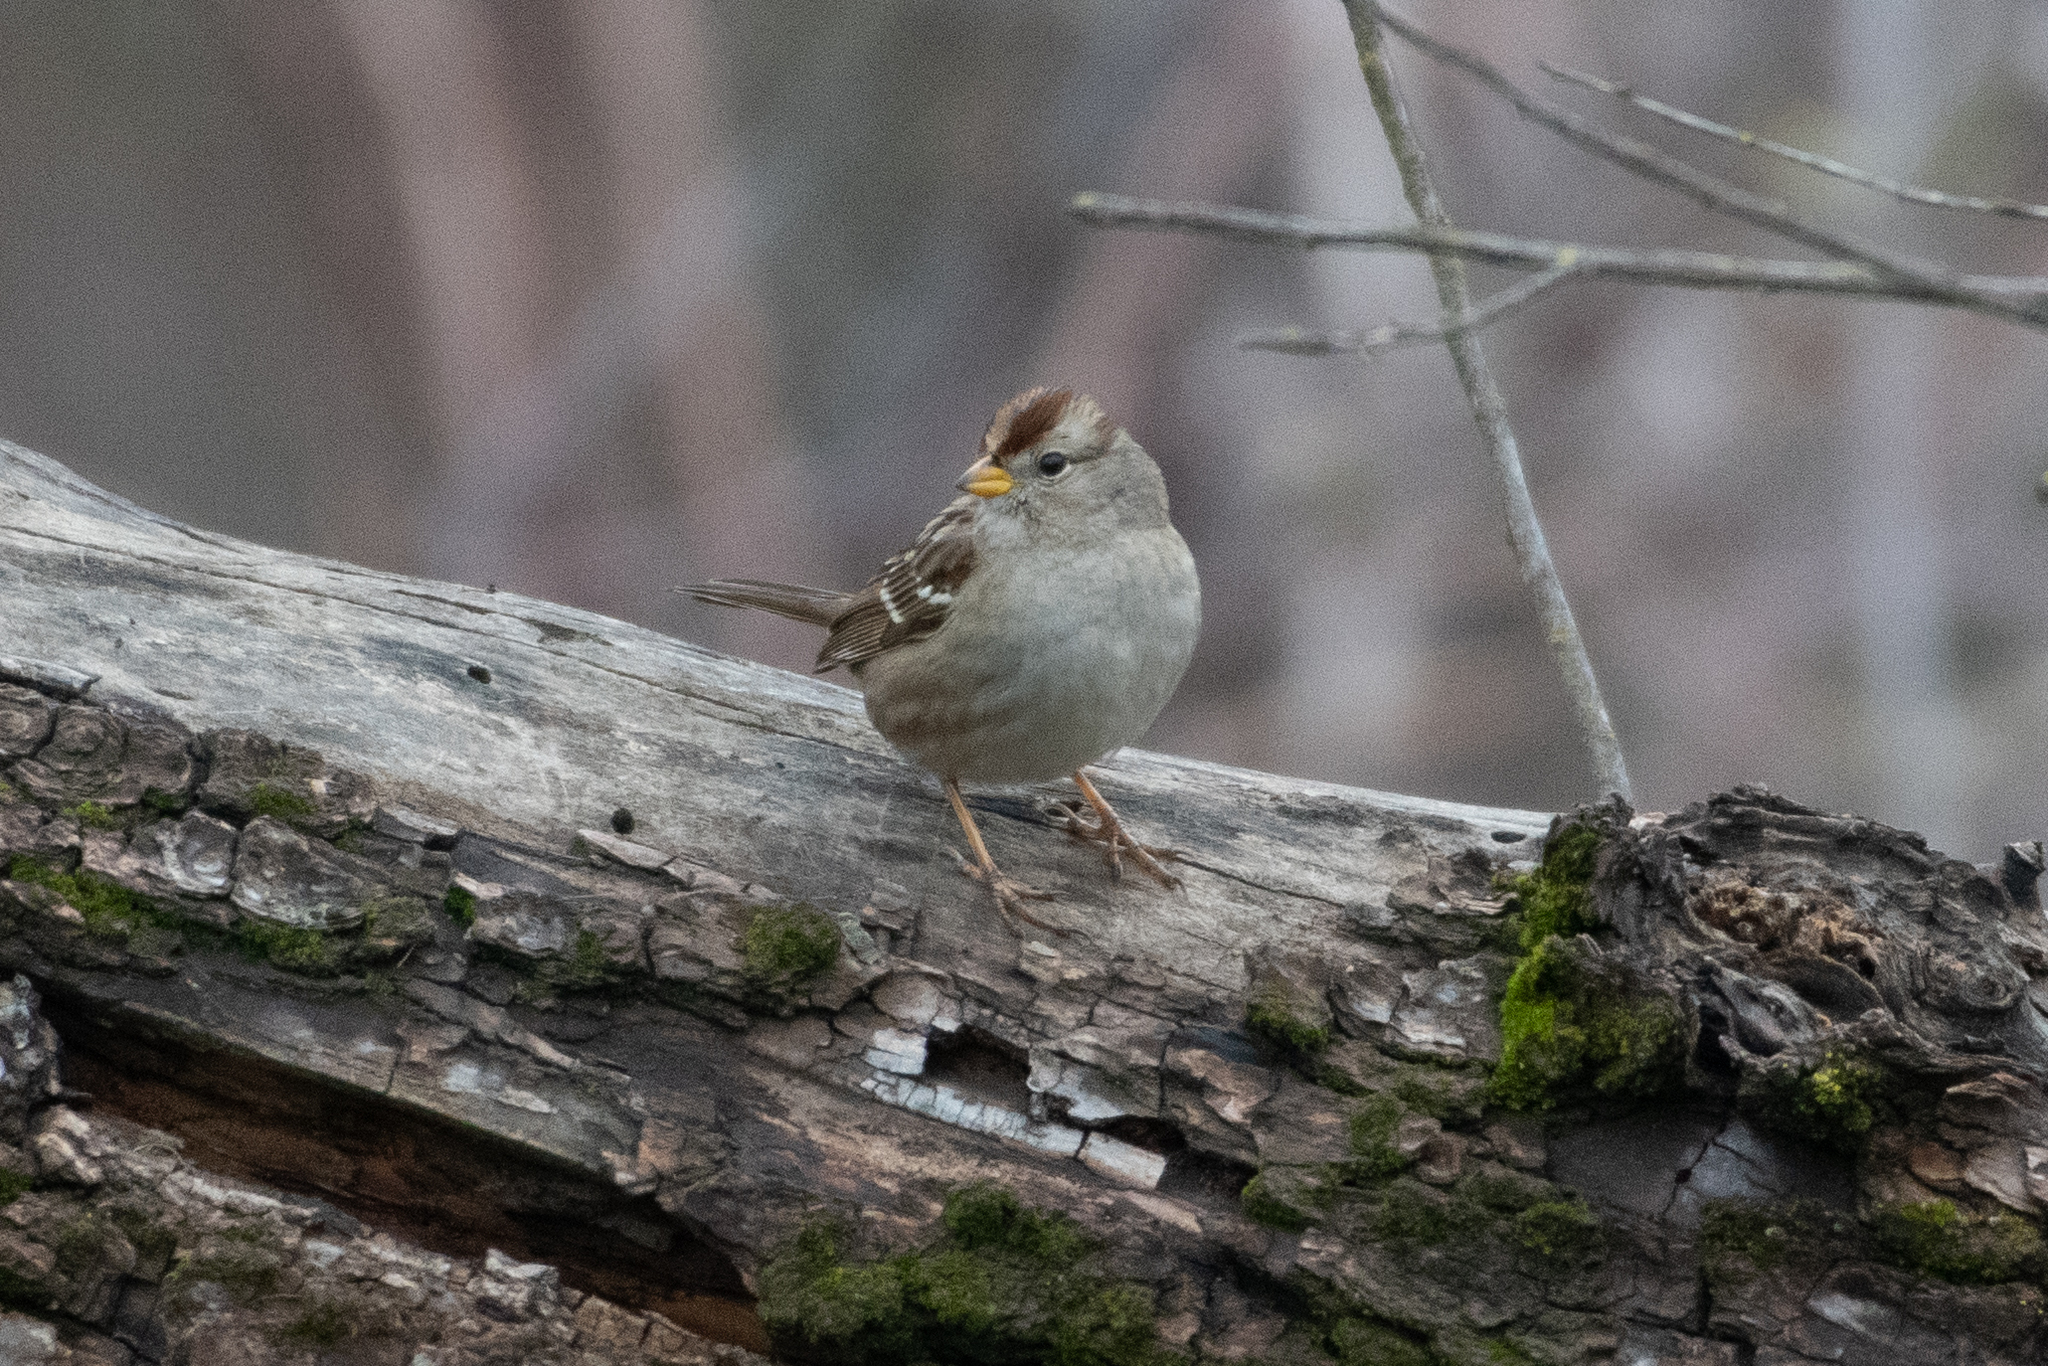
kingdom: Animalia
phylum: Chordata
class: Aves
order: Passeriformes
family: Passerellidae
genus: Zonotrichia
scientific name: Zonotrichia leucophrys
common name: White-crowned sparrow
